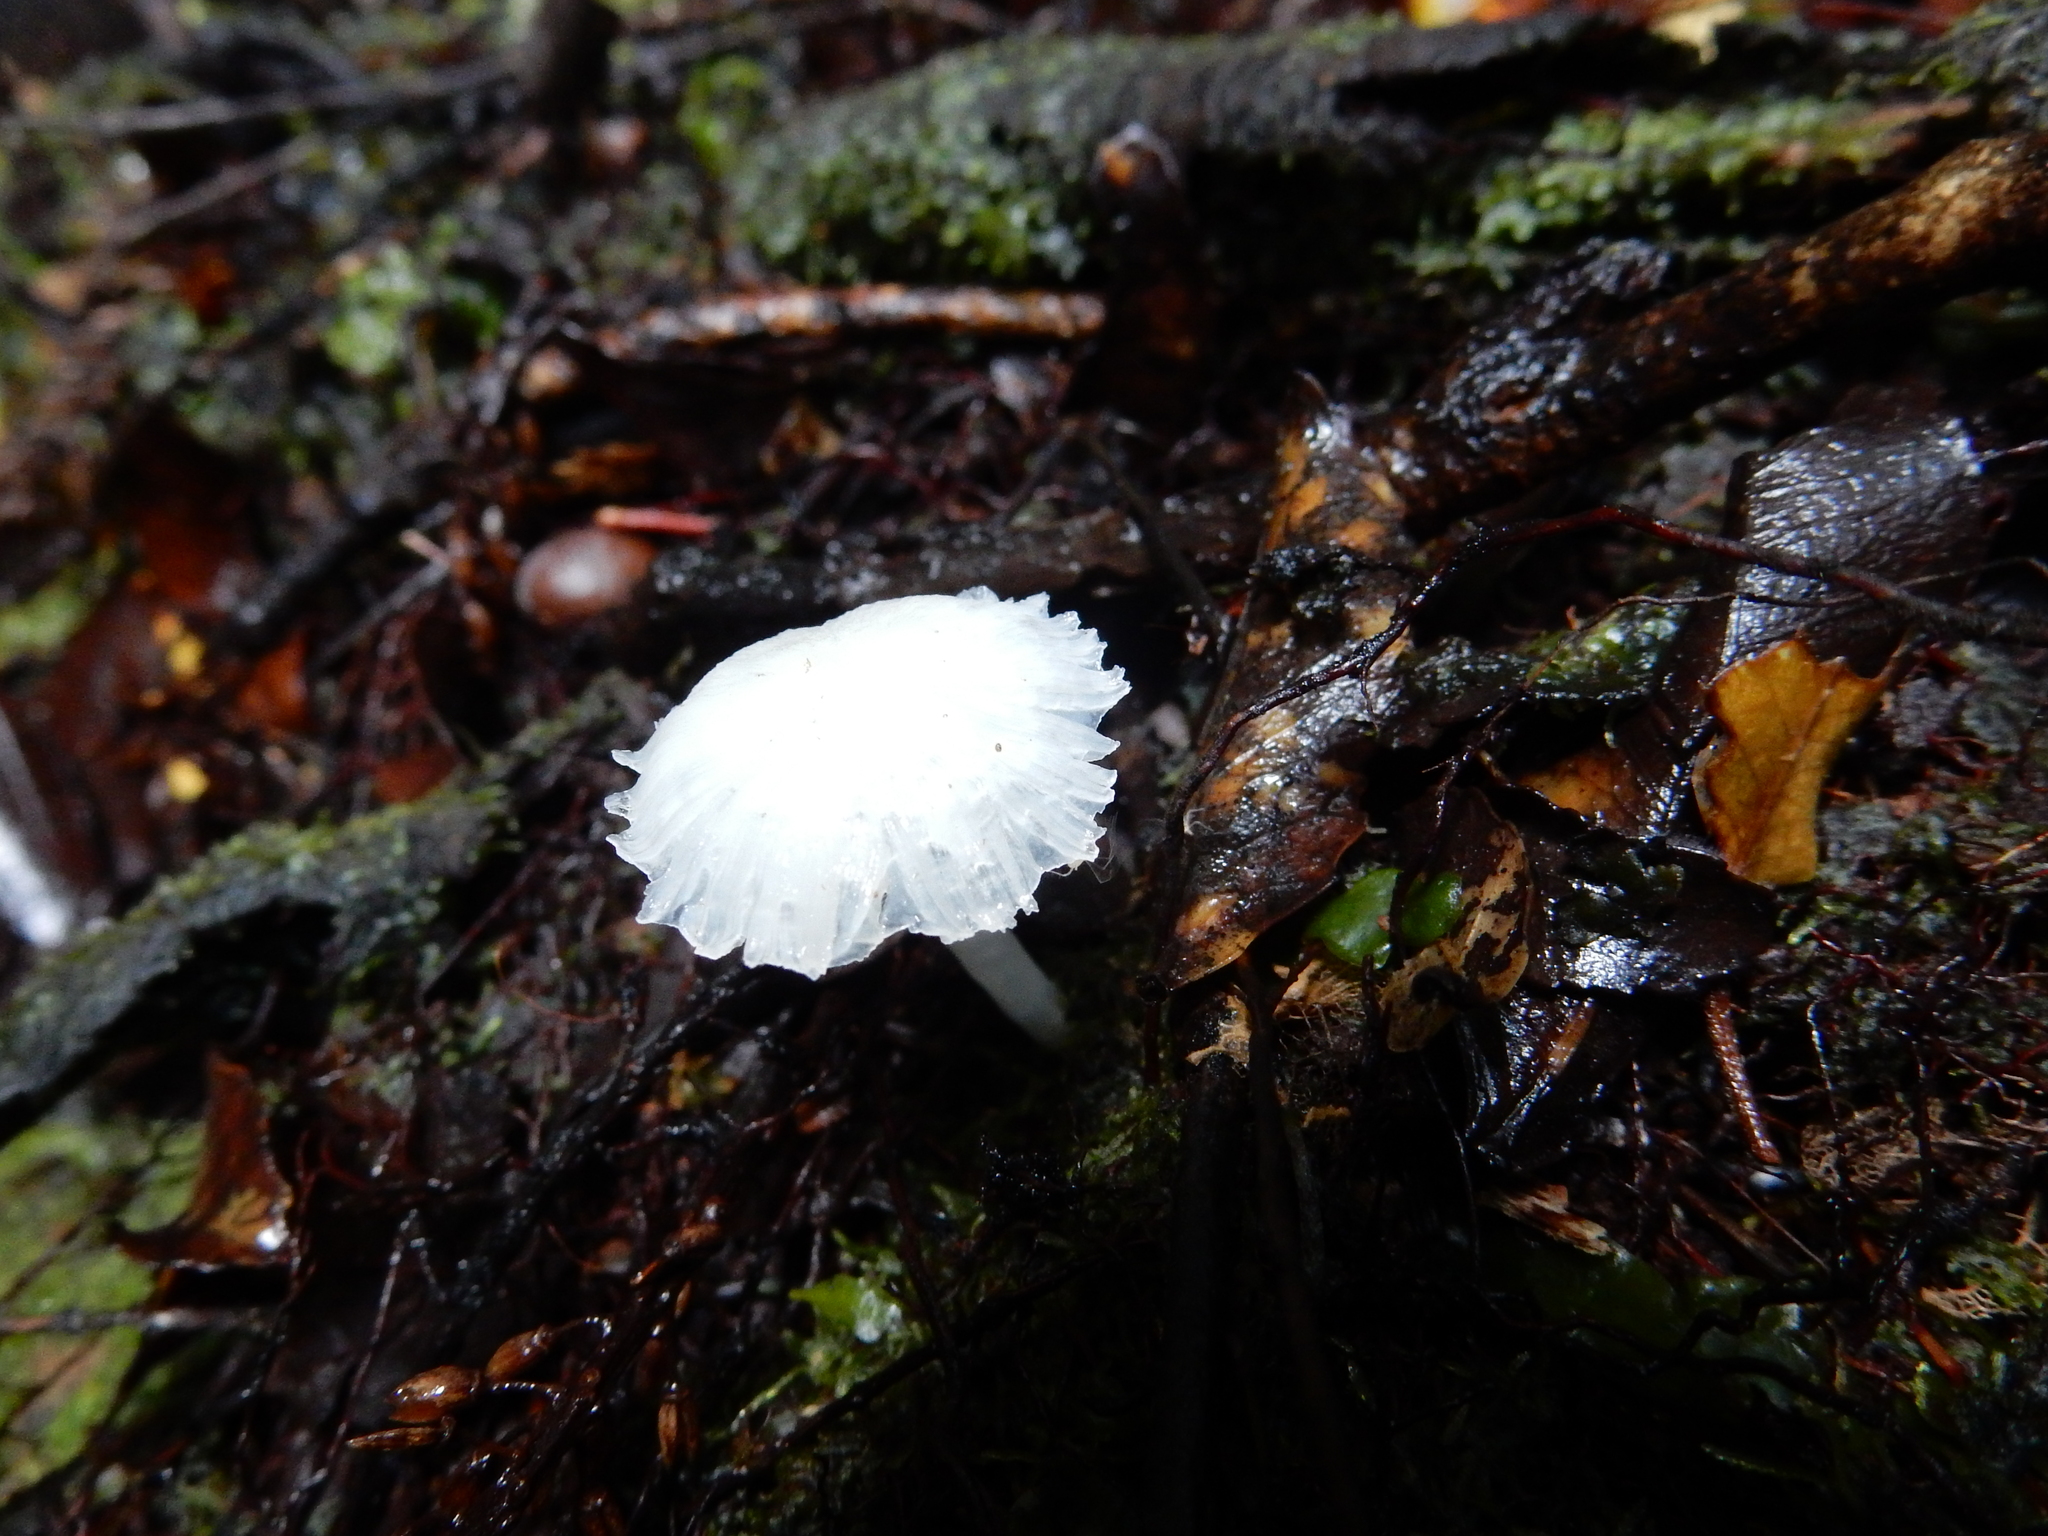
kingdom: Fungi
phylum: Basidiomycota
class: Agaricomycetes
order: Agaricales
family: Hygrophoraceae
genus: Humidicutis
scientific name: Humidicutis mavis
